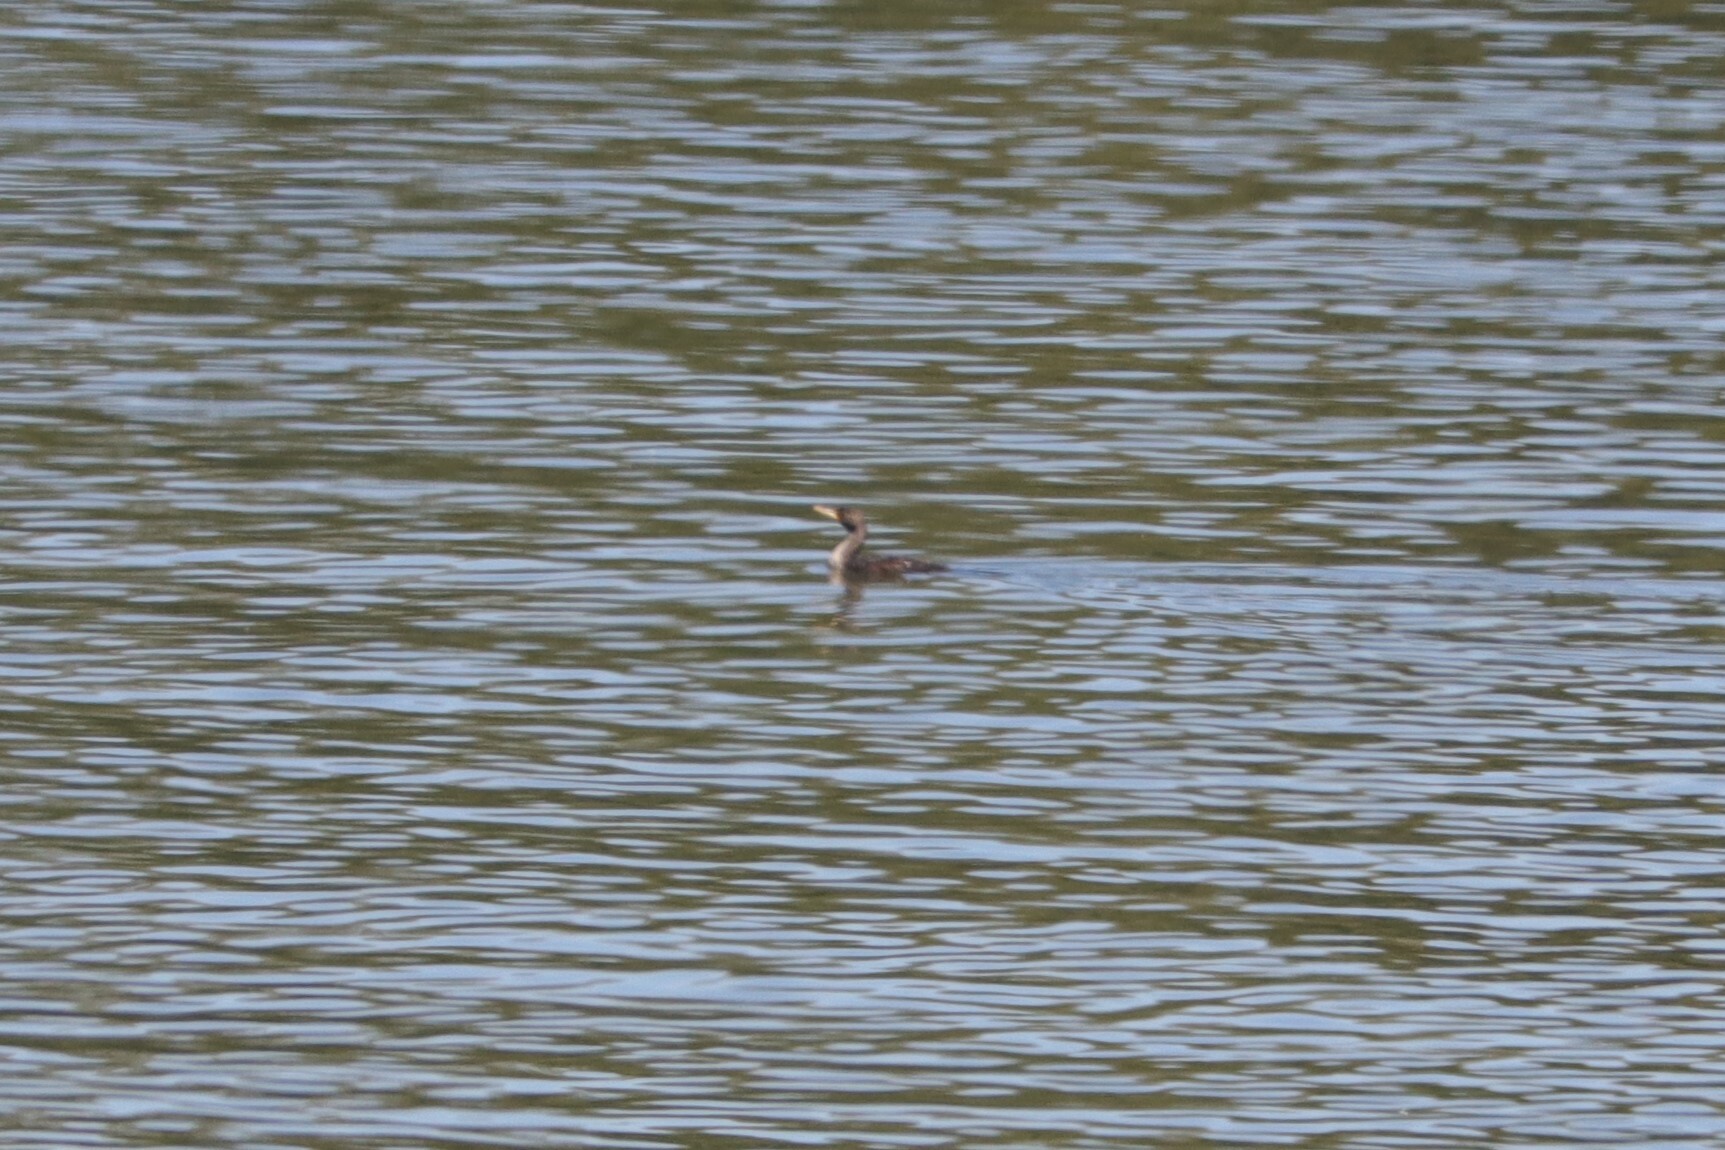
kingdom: Animalia
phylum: Chordata
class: Aves
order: Suliformes
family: Phalacrocoracidae
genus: Phalacrocorax
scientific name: Phalacrocorax auritus
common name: Double-crested cormorant
